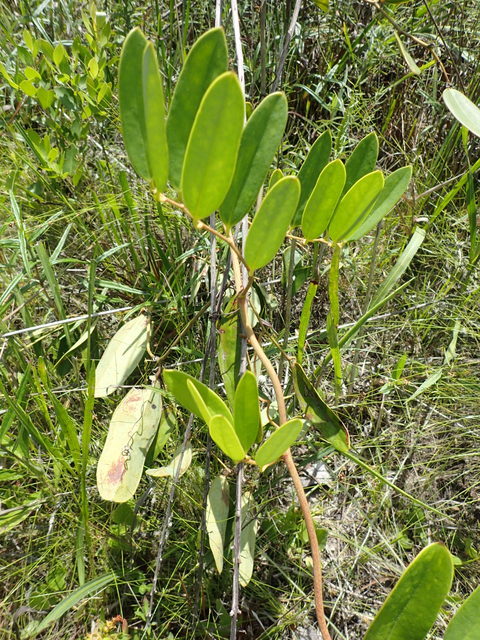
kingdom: Plantae
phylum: Tracheophyta
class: Liliopsida
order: Liliales
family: Smilacaceae
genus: Smilax
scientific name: Smilax laurifolia
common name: Bamboovine
